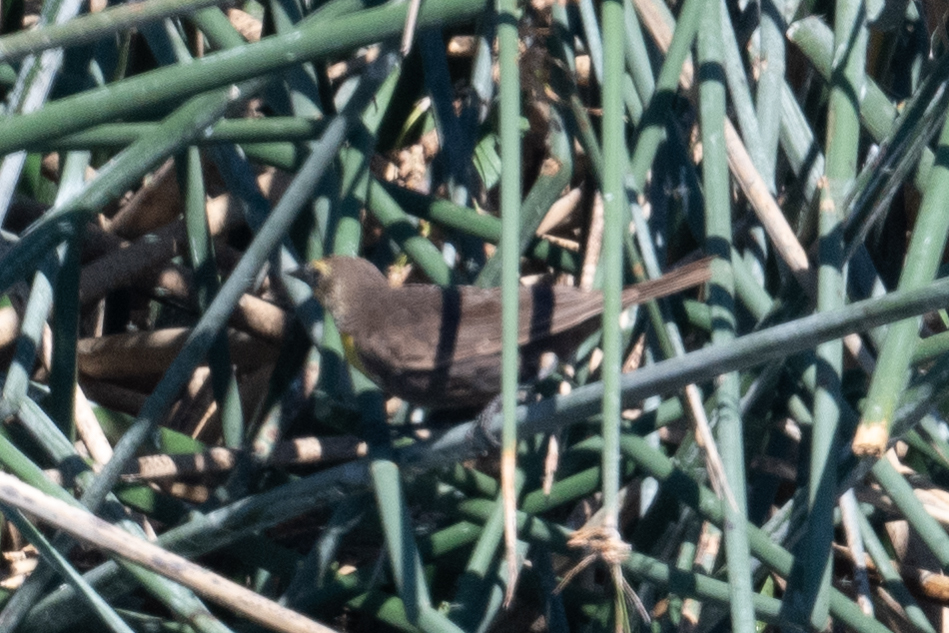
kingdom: Animalia
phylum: Chordata
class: Aves
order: Passeriformes
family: Icteridae
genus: Xanthocephalus
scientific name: Xanthocephalus xanthocephalus
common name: Yellow-headed blackbird
